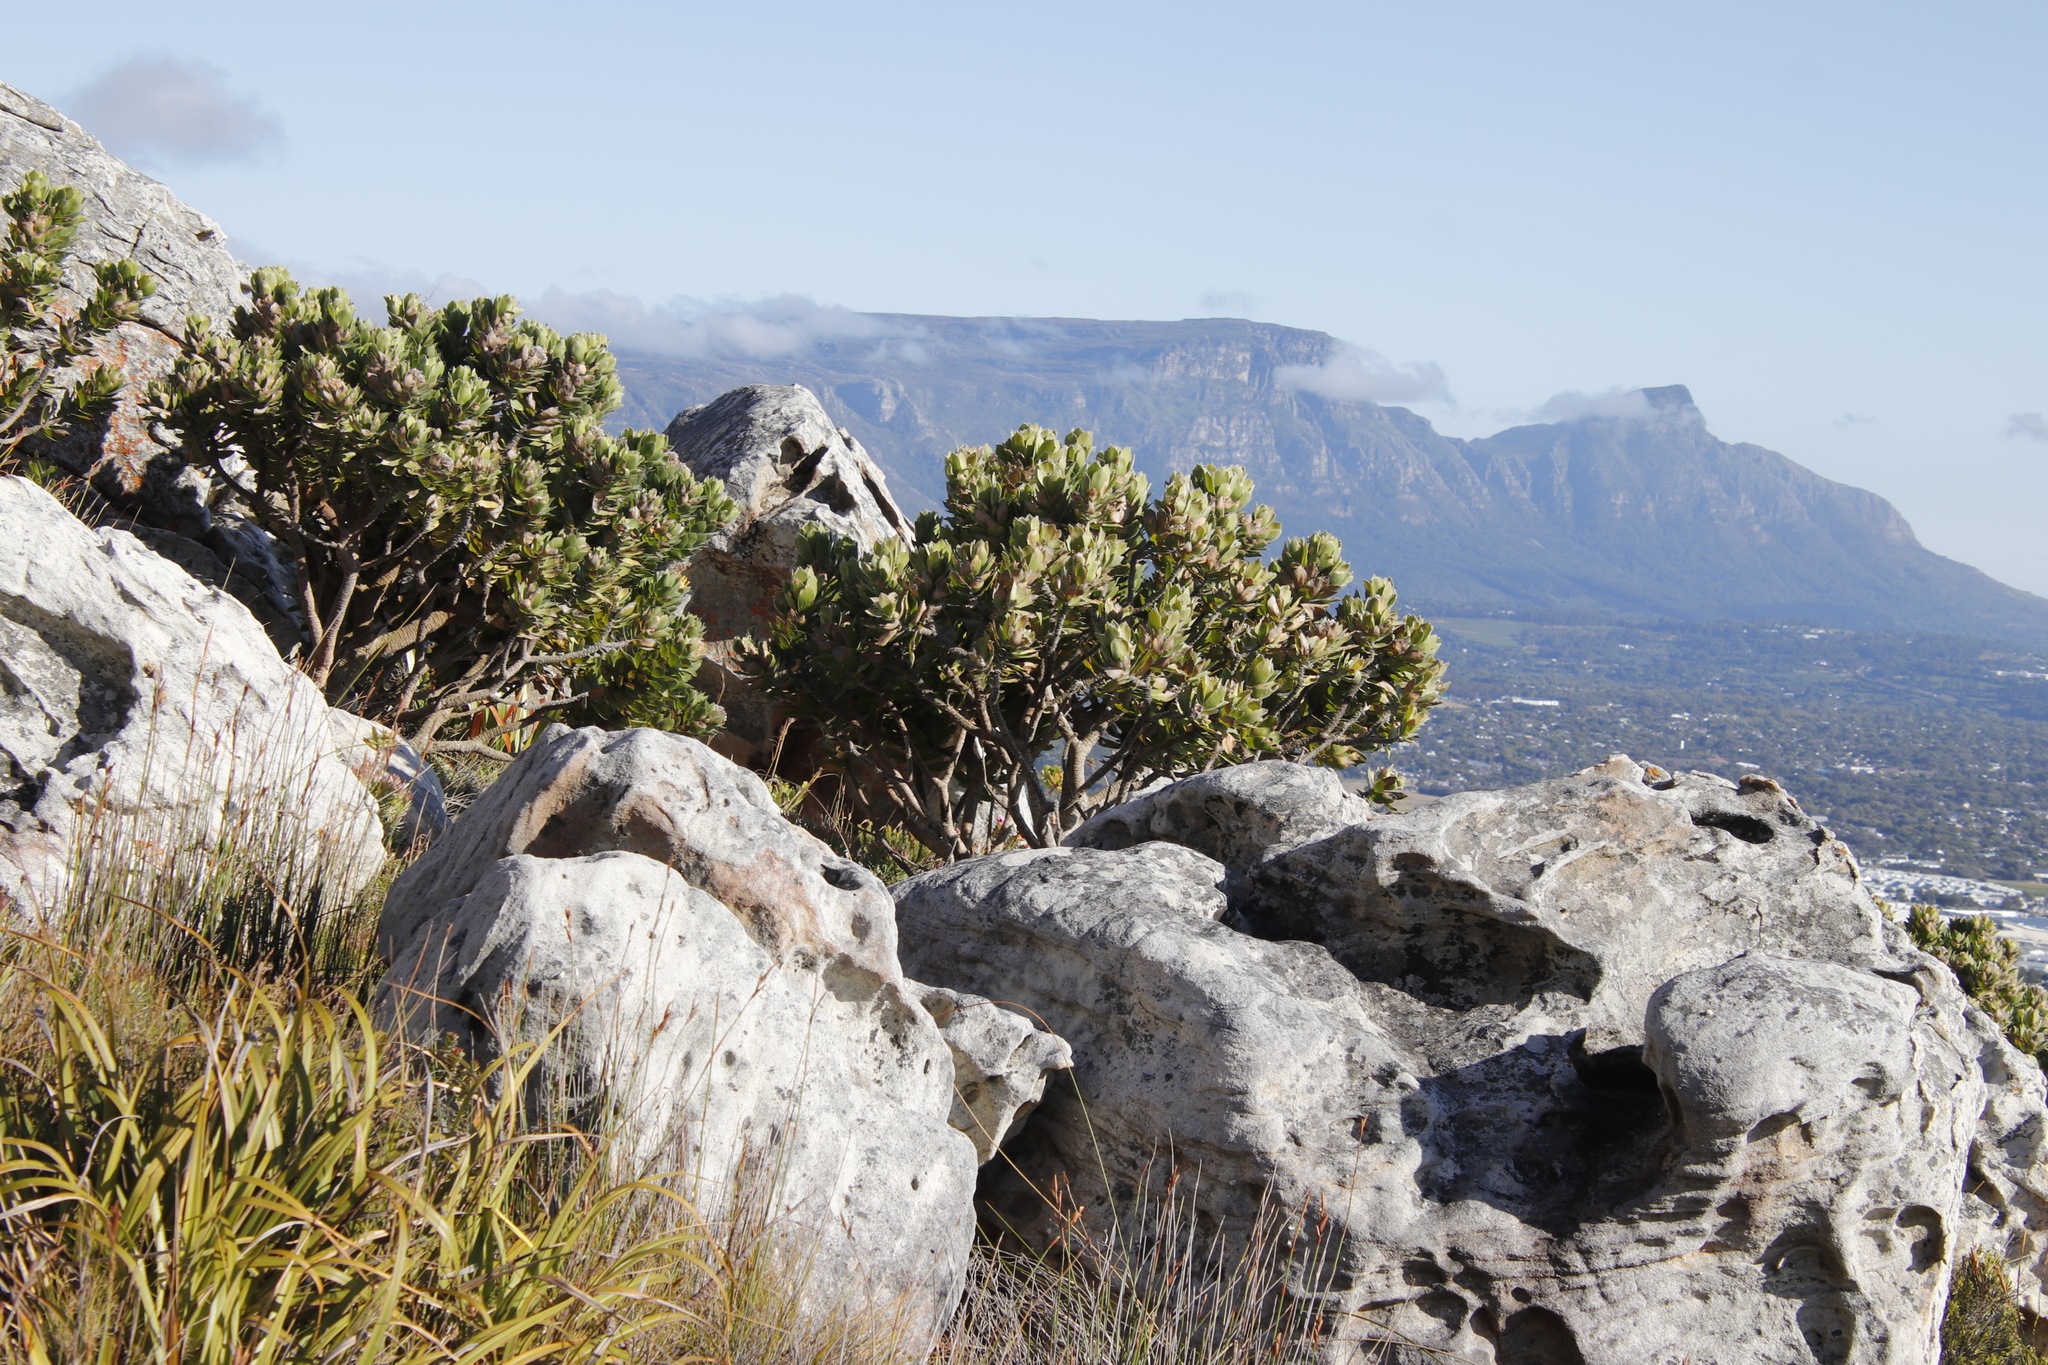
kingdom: Plantae
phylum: Tracheophyta
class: Magnoliopsida
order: Proteales
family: Proteaceae
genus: Leucospermum
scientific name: Leucospermum conocarpodendron
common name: Tree pincushion
